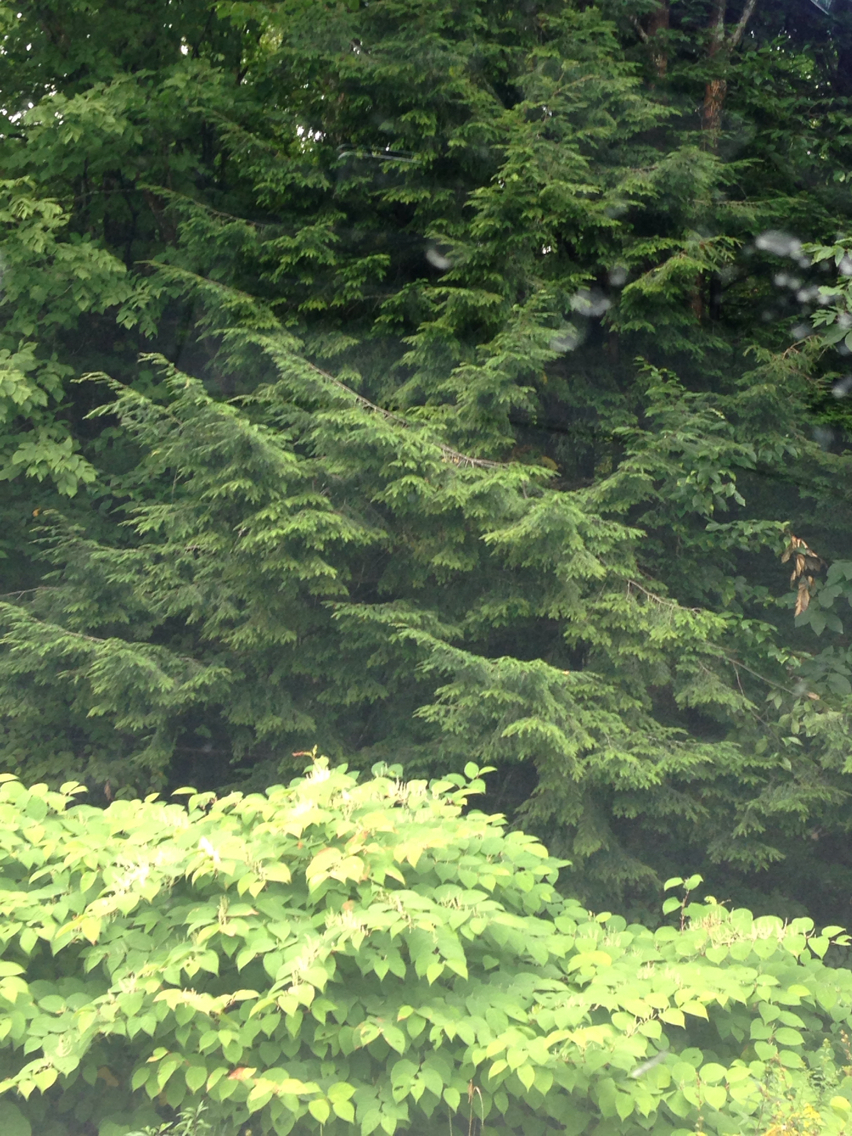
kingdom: Plantae
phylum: Tracheophyta
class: Pinopsida
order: Pinales
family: Pinaceae
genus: Tsuga
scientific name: Tsuga canadensis
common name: Eastern hemlock
